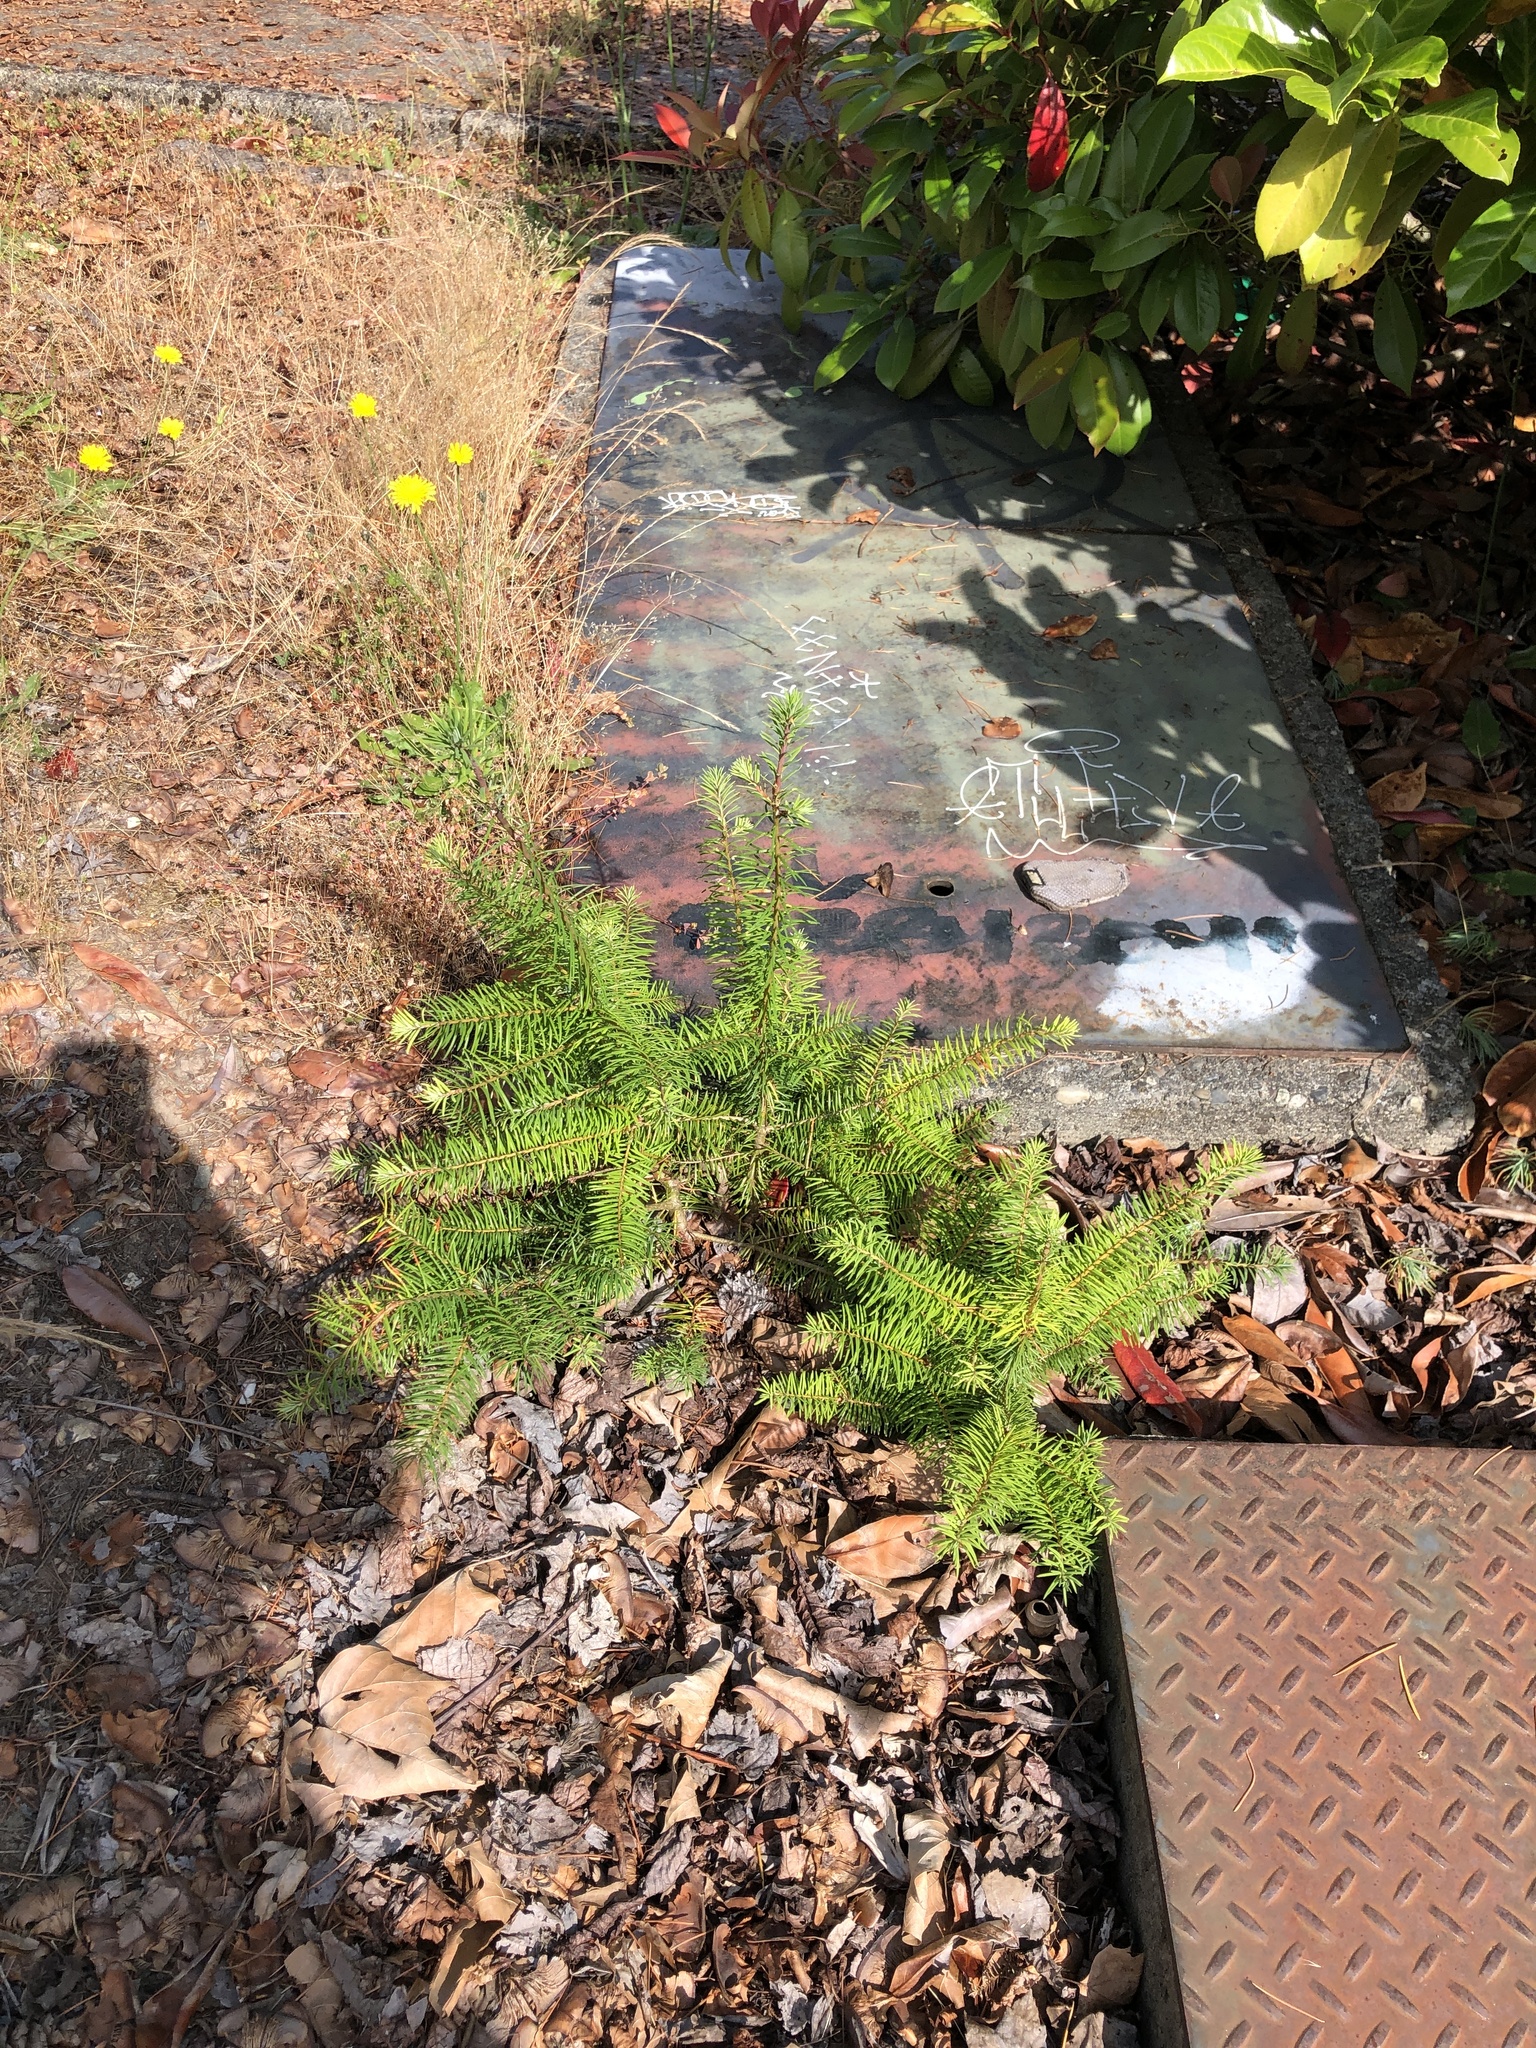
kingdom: Plantae
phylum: Tracheophyta
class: Pinopsida
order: Pinales
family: Pinaceae
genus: Pseudotsuga
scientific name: Pseudotsuga menziesii
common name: Douglas fir
